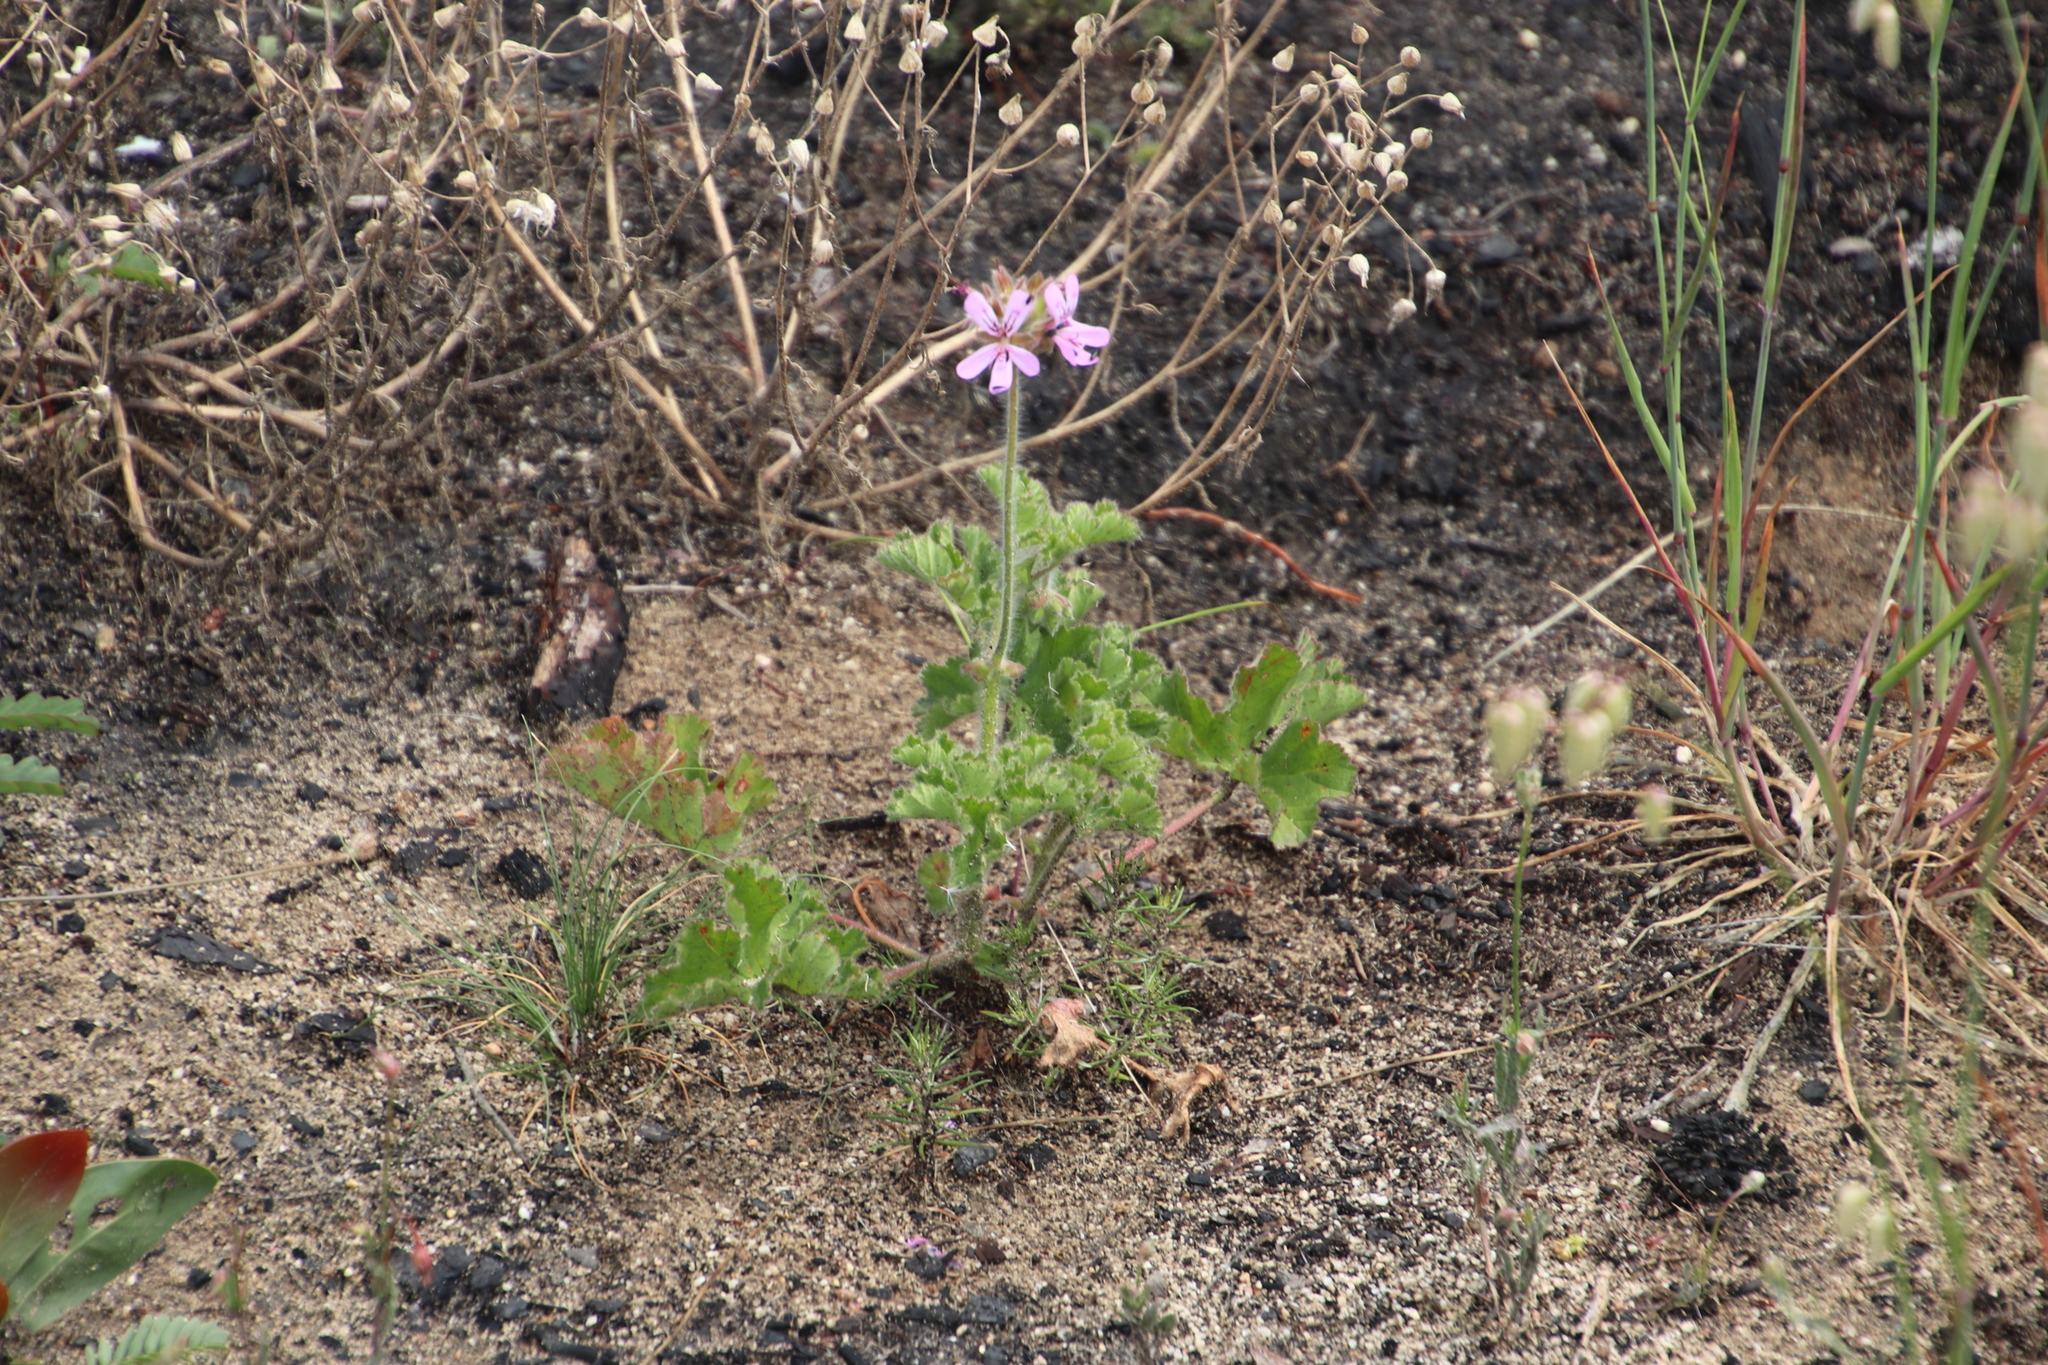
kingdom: Plantae
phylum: Tracheophyta
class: Magnoliopsida
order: Geraniales
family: Geraniaceae
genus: Pelargonium
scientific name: Pelargonium capitatum
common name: Rose scented geranium
